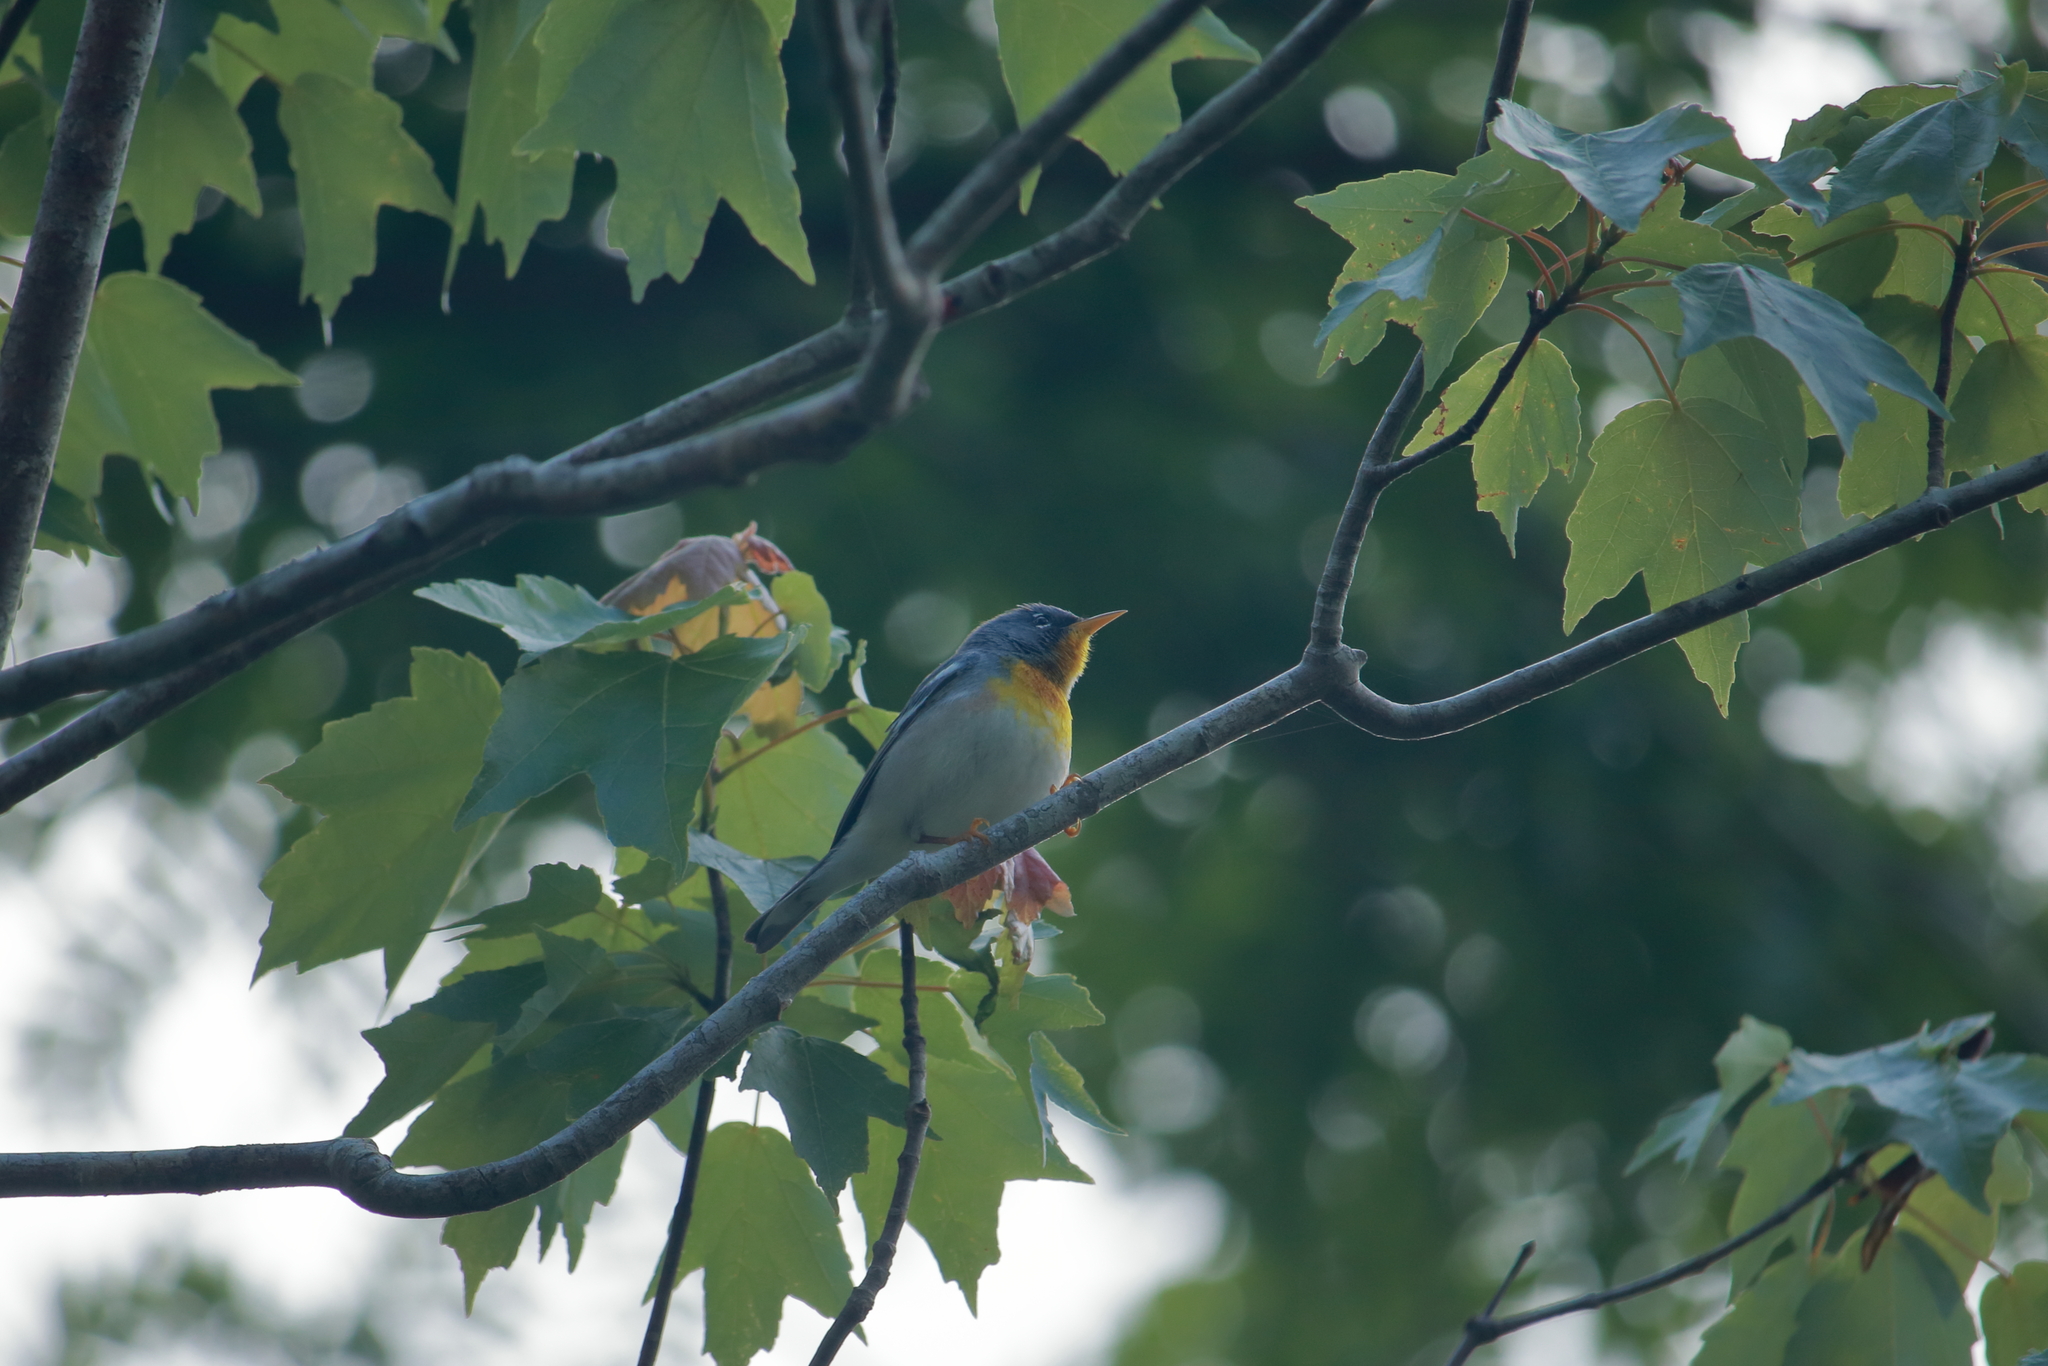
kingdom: Animalia
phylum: Chordata
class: Aves
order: Passeriformes
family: Parulidae
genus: Setophaga
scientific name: Setophaga americana
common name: Northern parula
